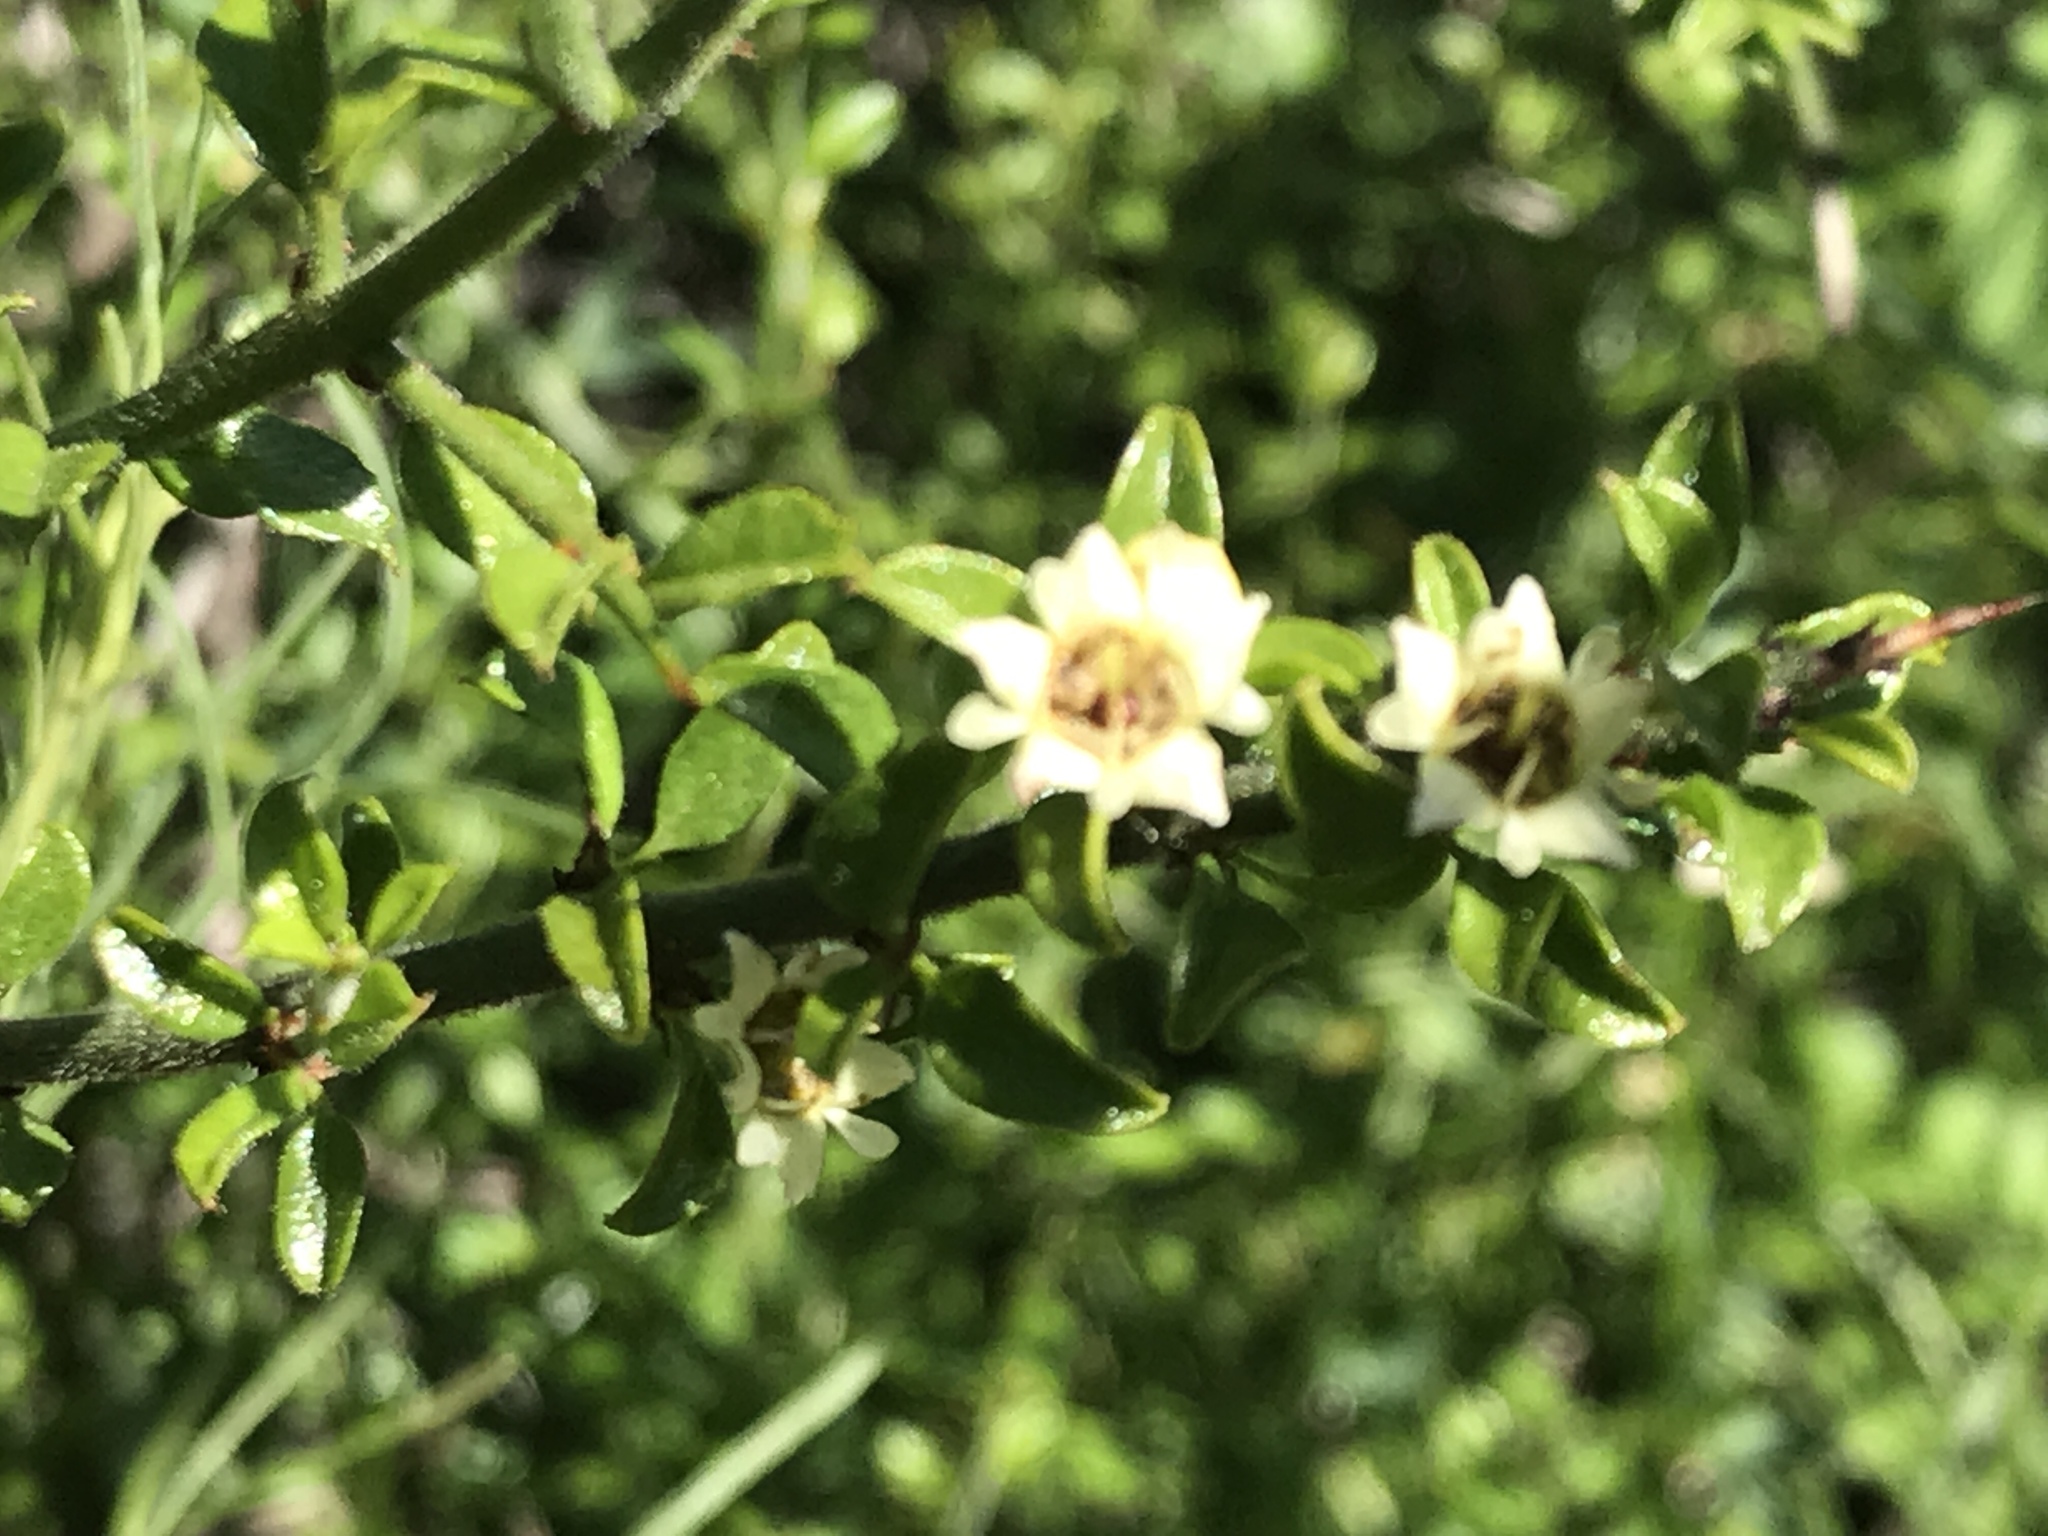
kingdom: Plantae
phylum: Tracheophyta
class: Magnoliopsida
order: Rosales
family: Rhamnaceae
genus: Adolphia
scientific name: Adolphia californica
